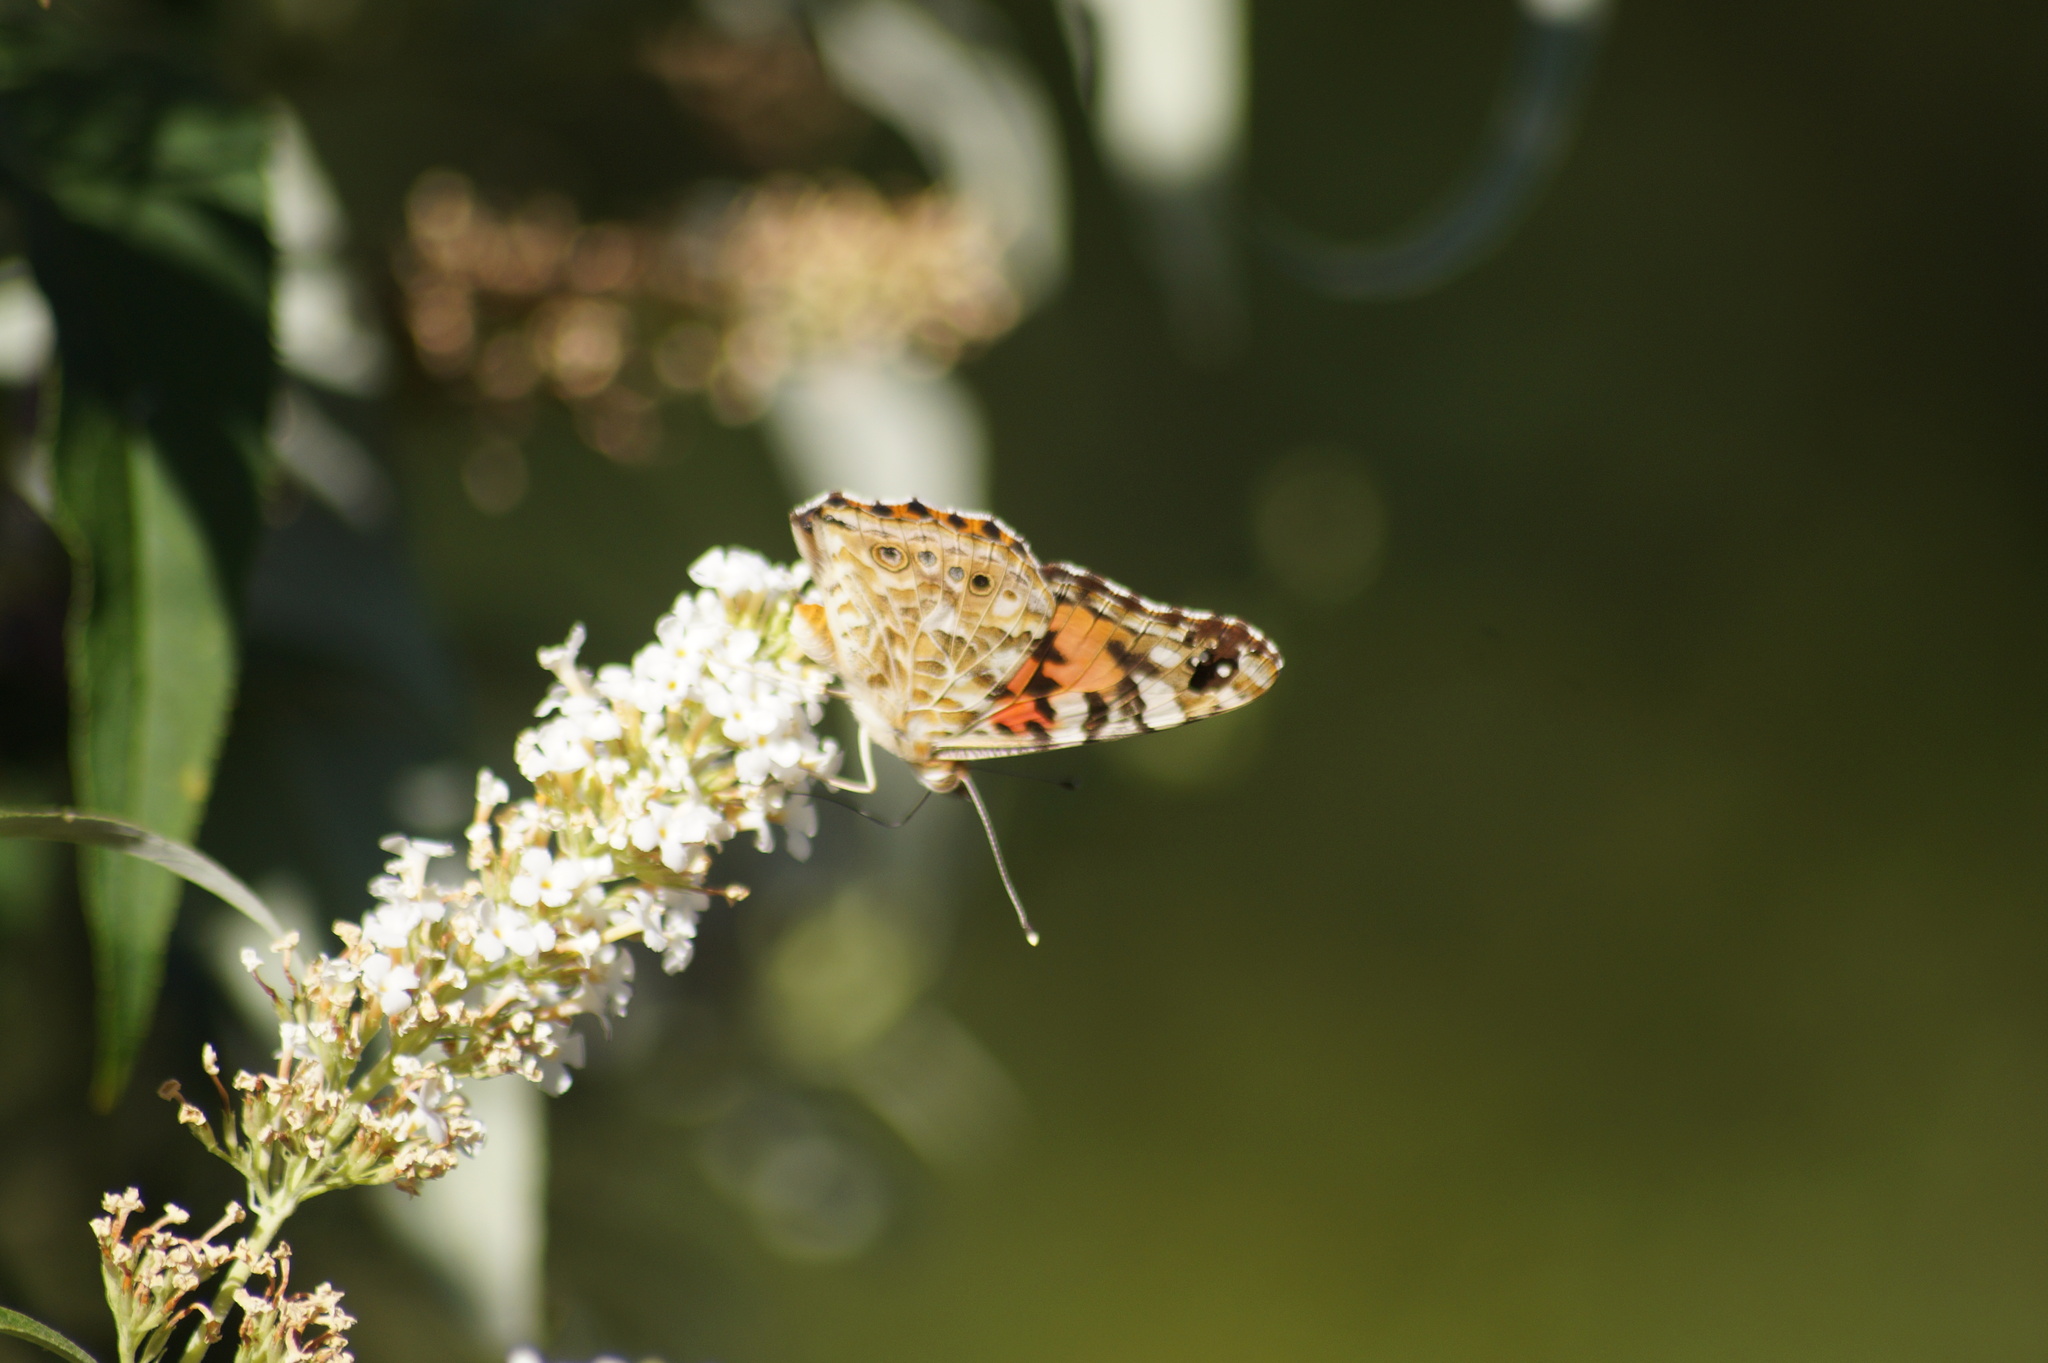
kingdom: Animalia
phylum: Arthropoda
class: Insecta
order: Lepidoptera
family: Nymphalidae
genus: Vanessa
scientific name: Vanessa cardui
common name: Painted lady
